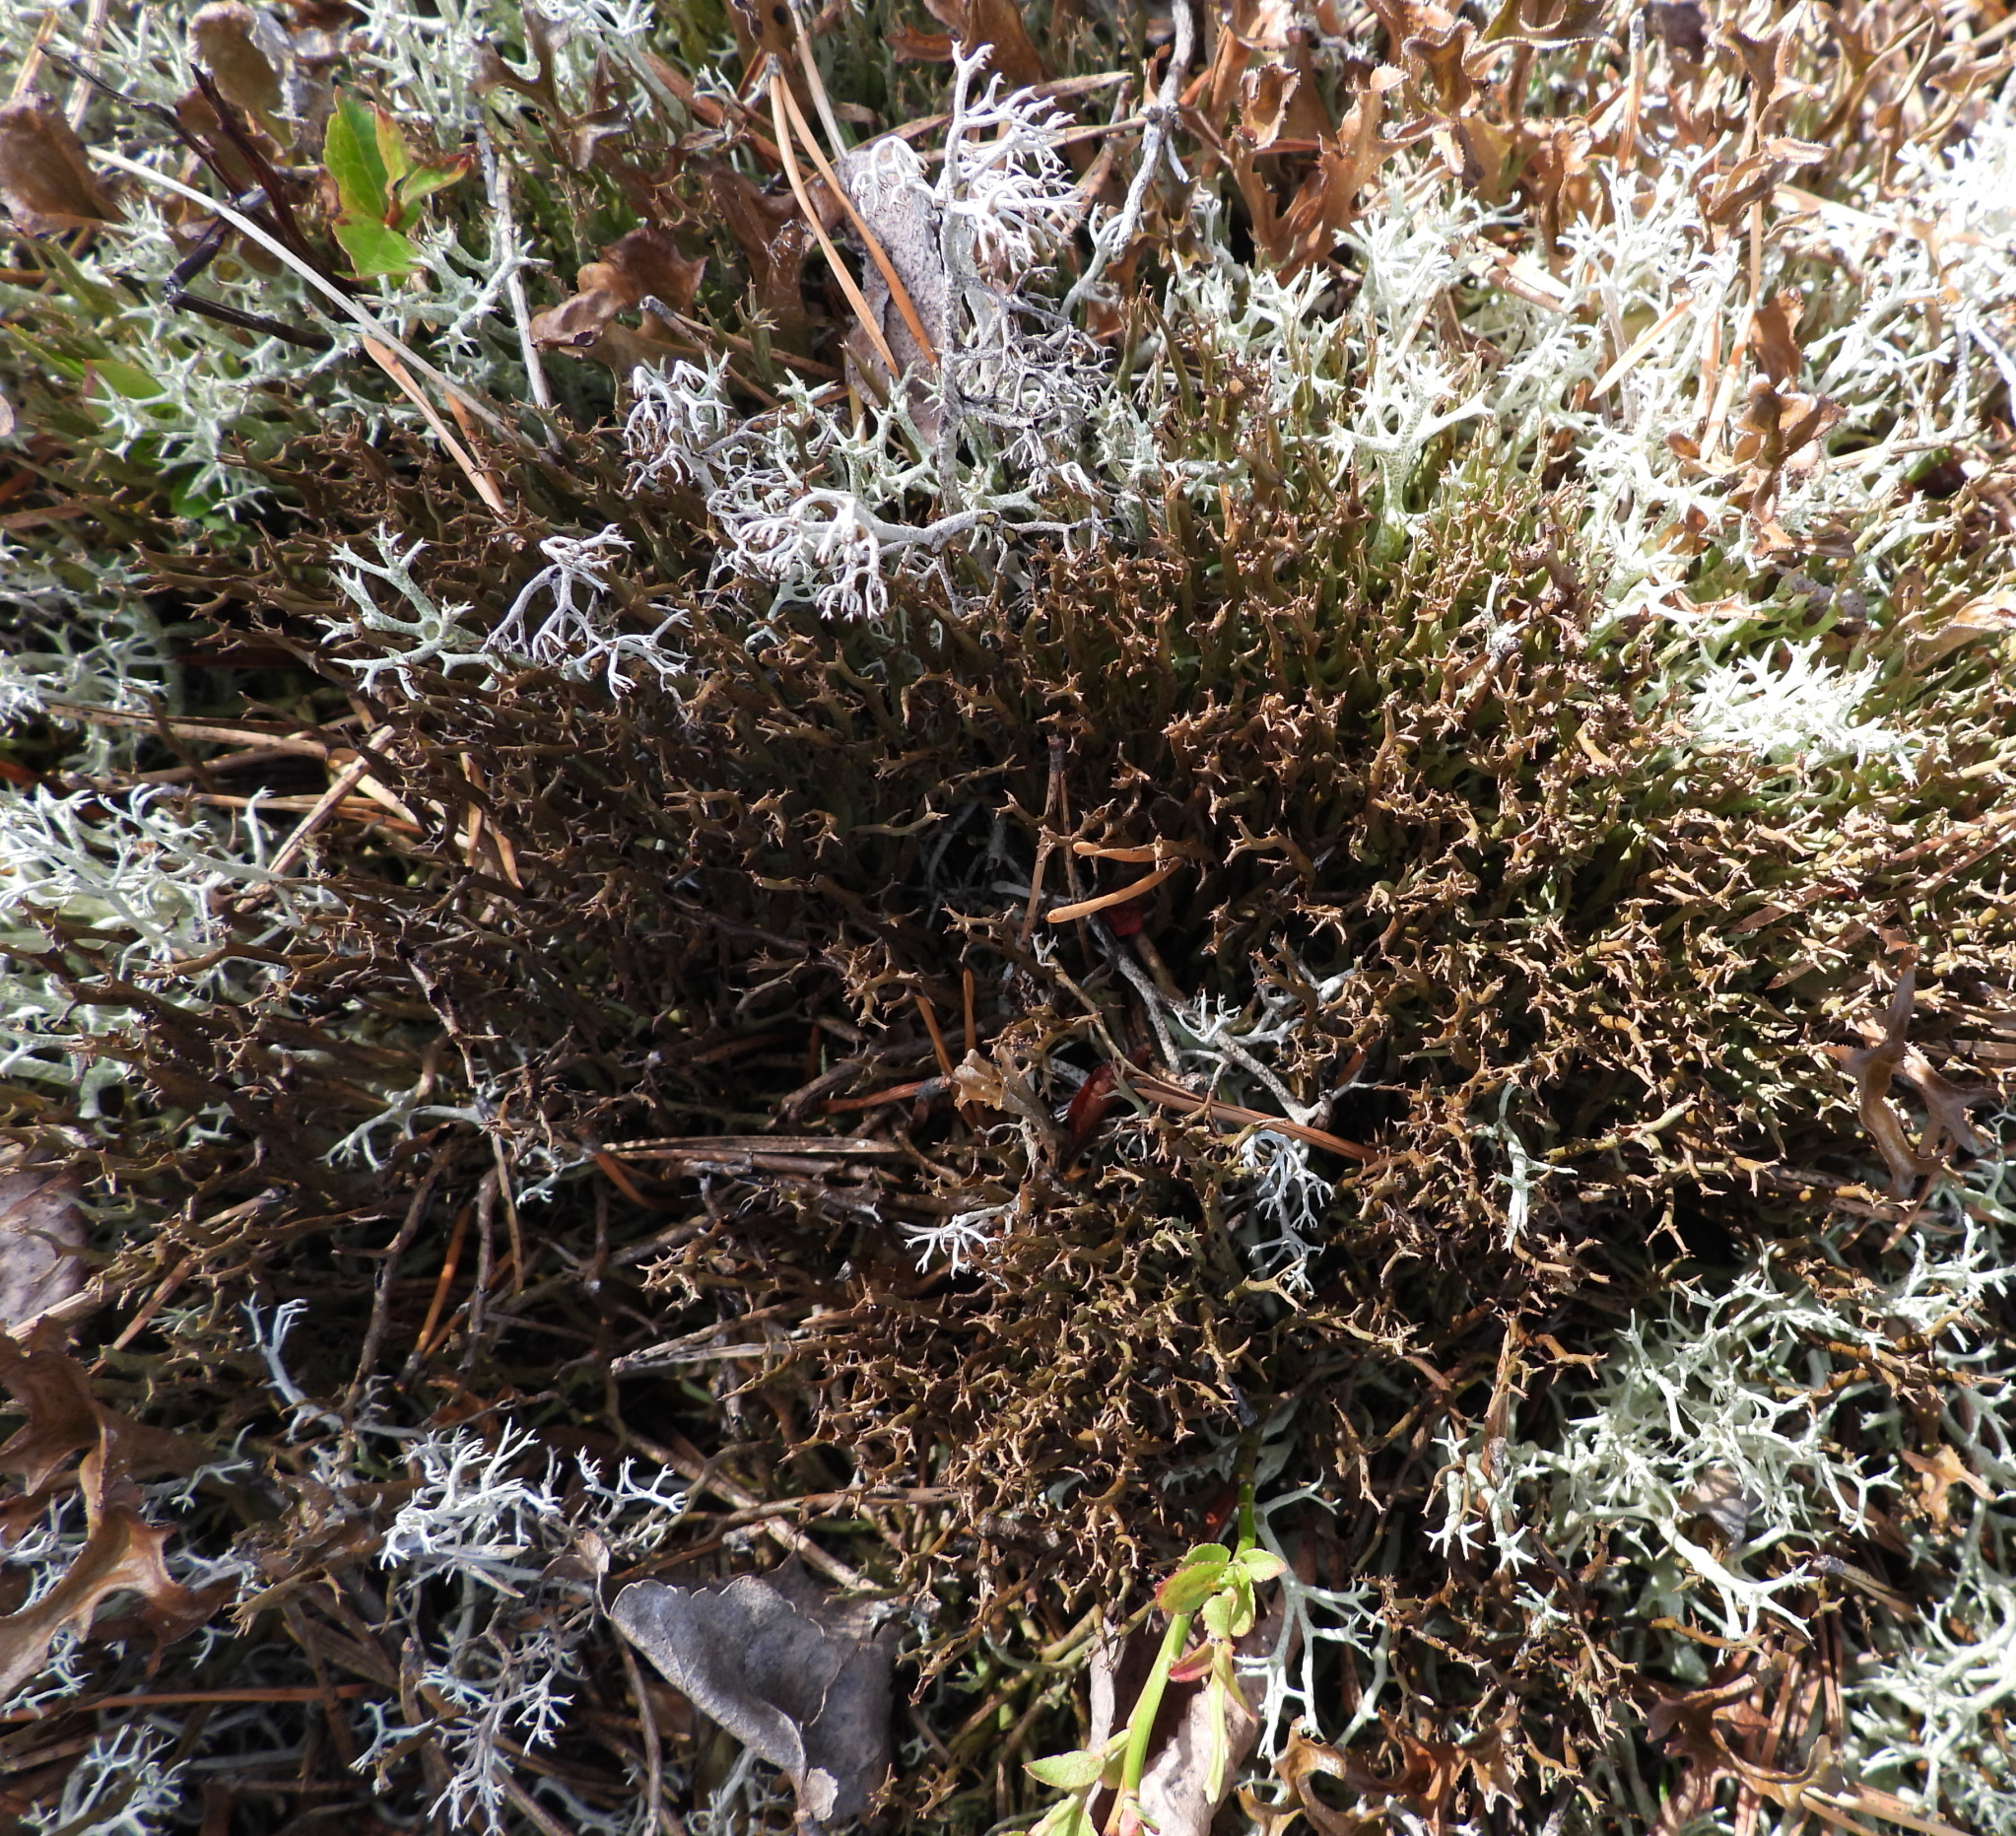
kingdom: Fungi
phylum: Ascomycota
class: Lecanoromycetes
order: Lecanorales
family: Cladoniaceae
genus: Cladonia
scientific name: Cladonia crispata
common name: Organ-pipe lichen
